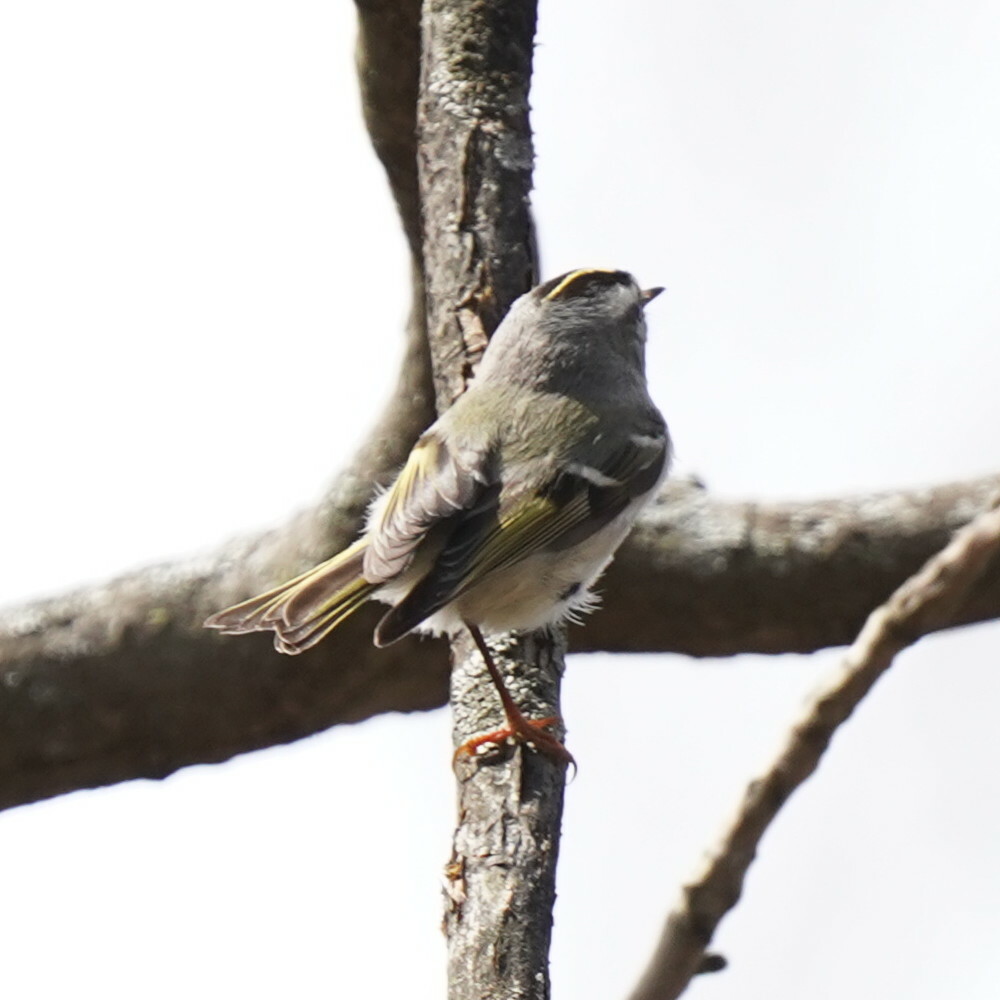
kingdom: Animalia
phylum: Chordata
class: Aves
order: Passeriformes
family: Regulidae
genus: Regulus
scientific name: Regulus satrapa
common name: Golden-crowned kinglet
